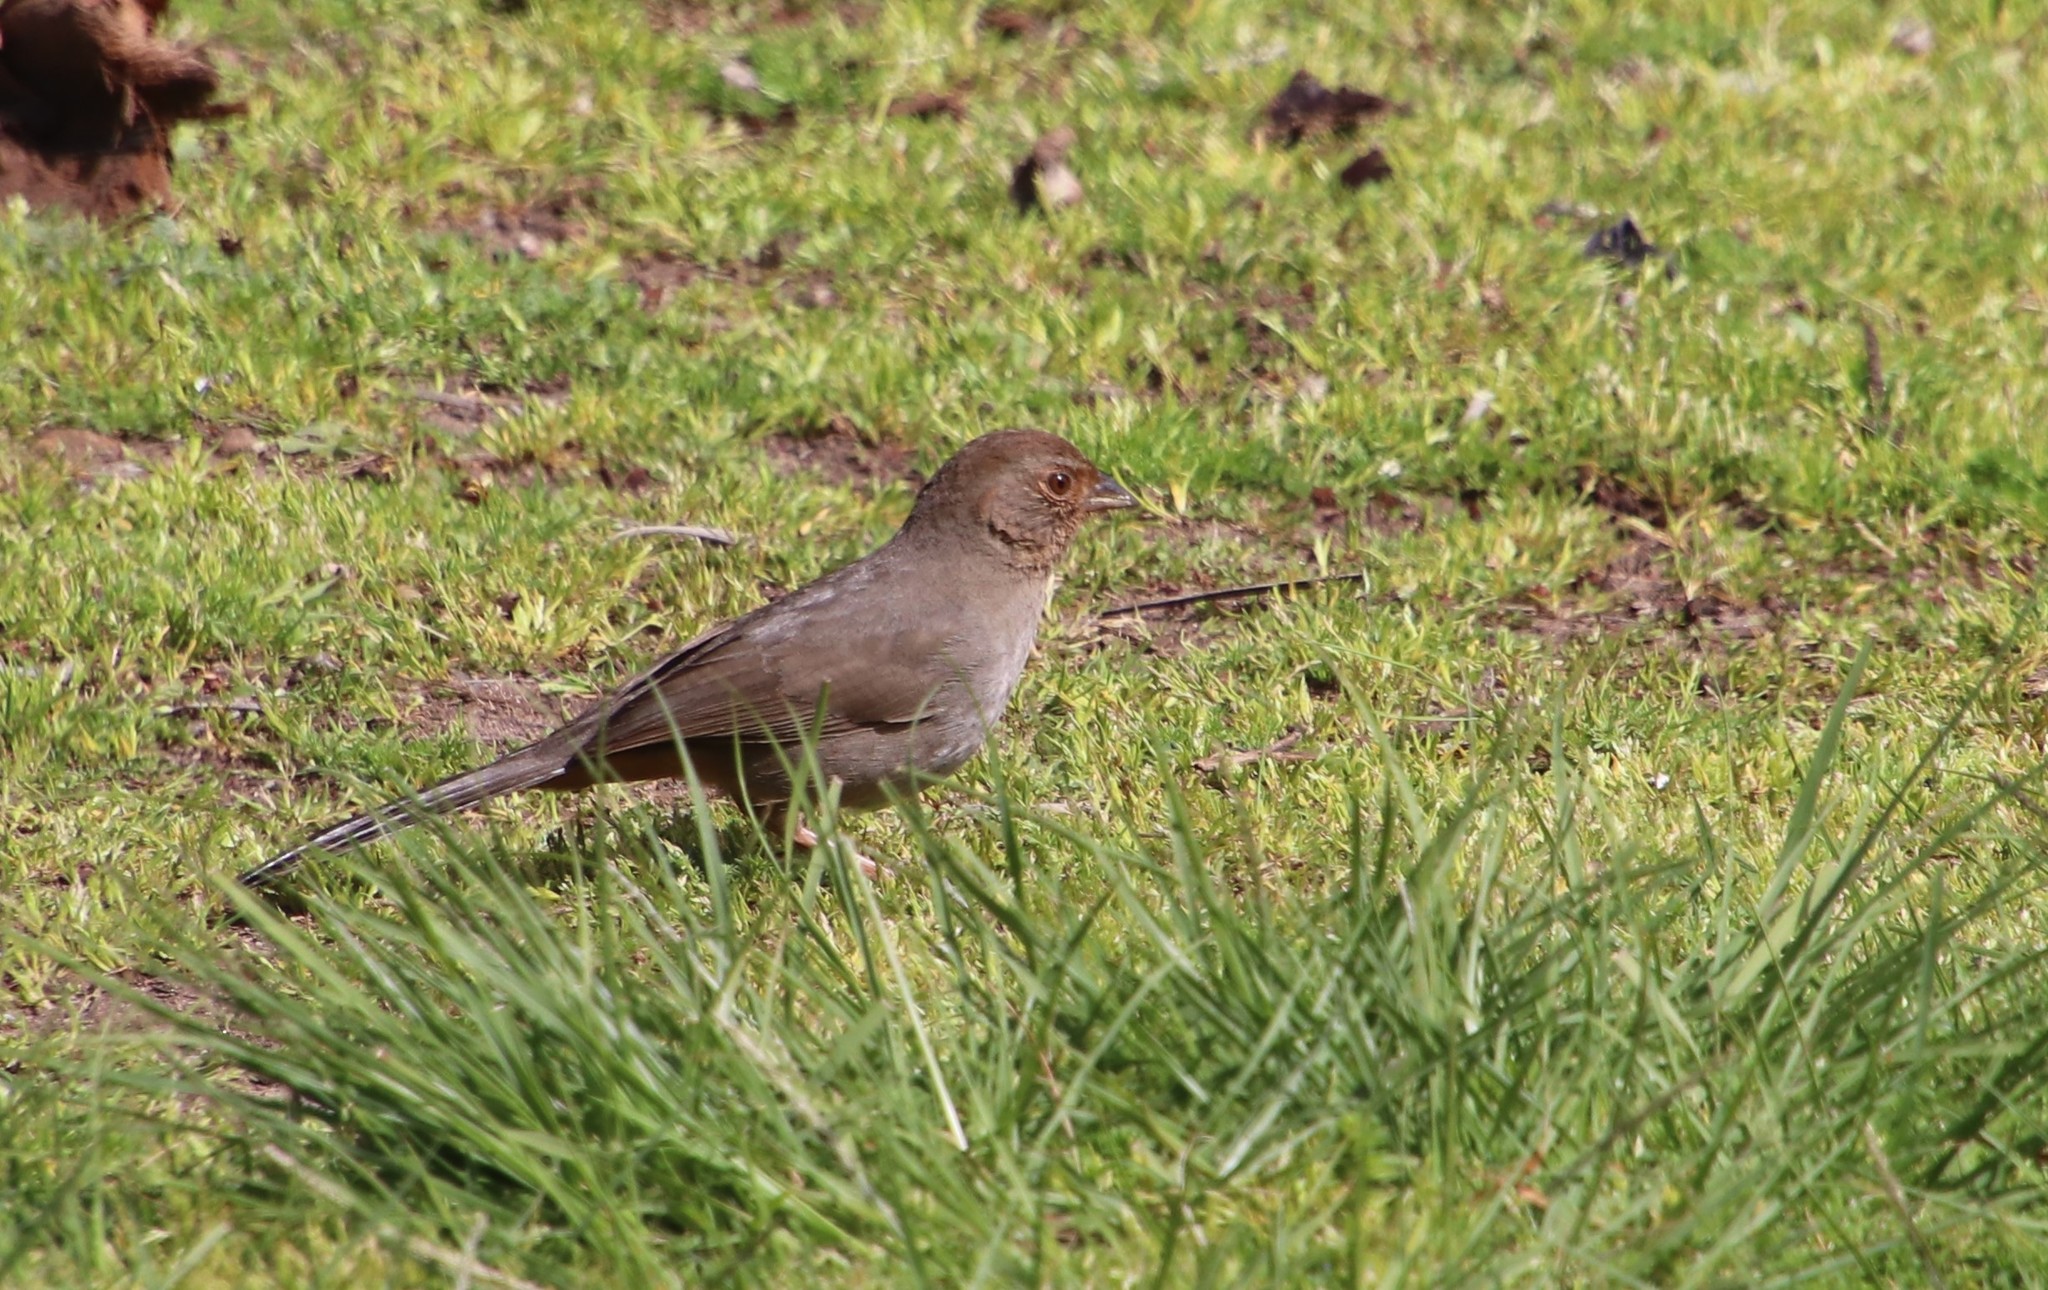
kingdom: Animalia
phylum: Chordata
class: Aves
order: Passeriformes
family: Passerellidae
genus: Melozone
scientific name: Melozone crissalis
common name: California towhee
